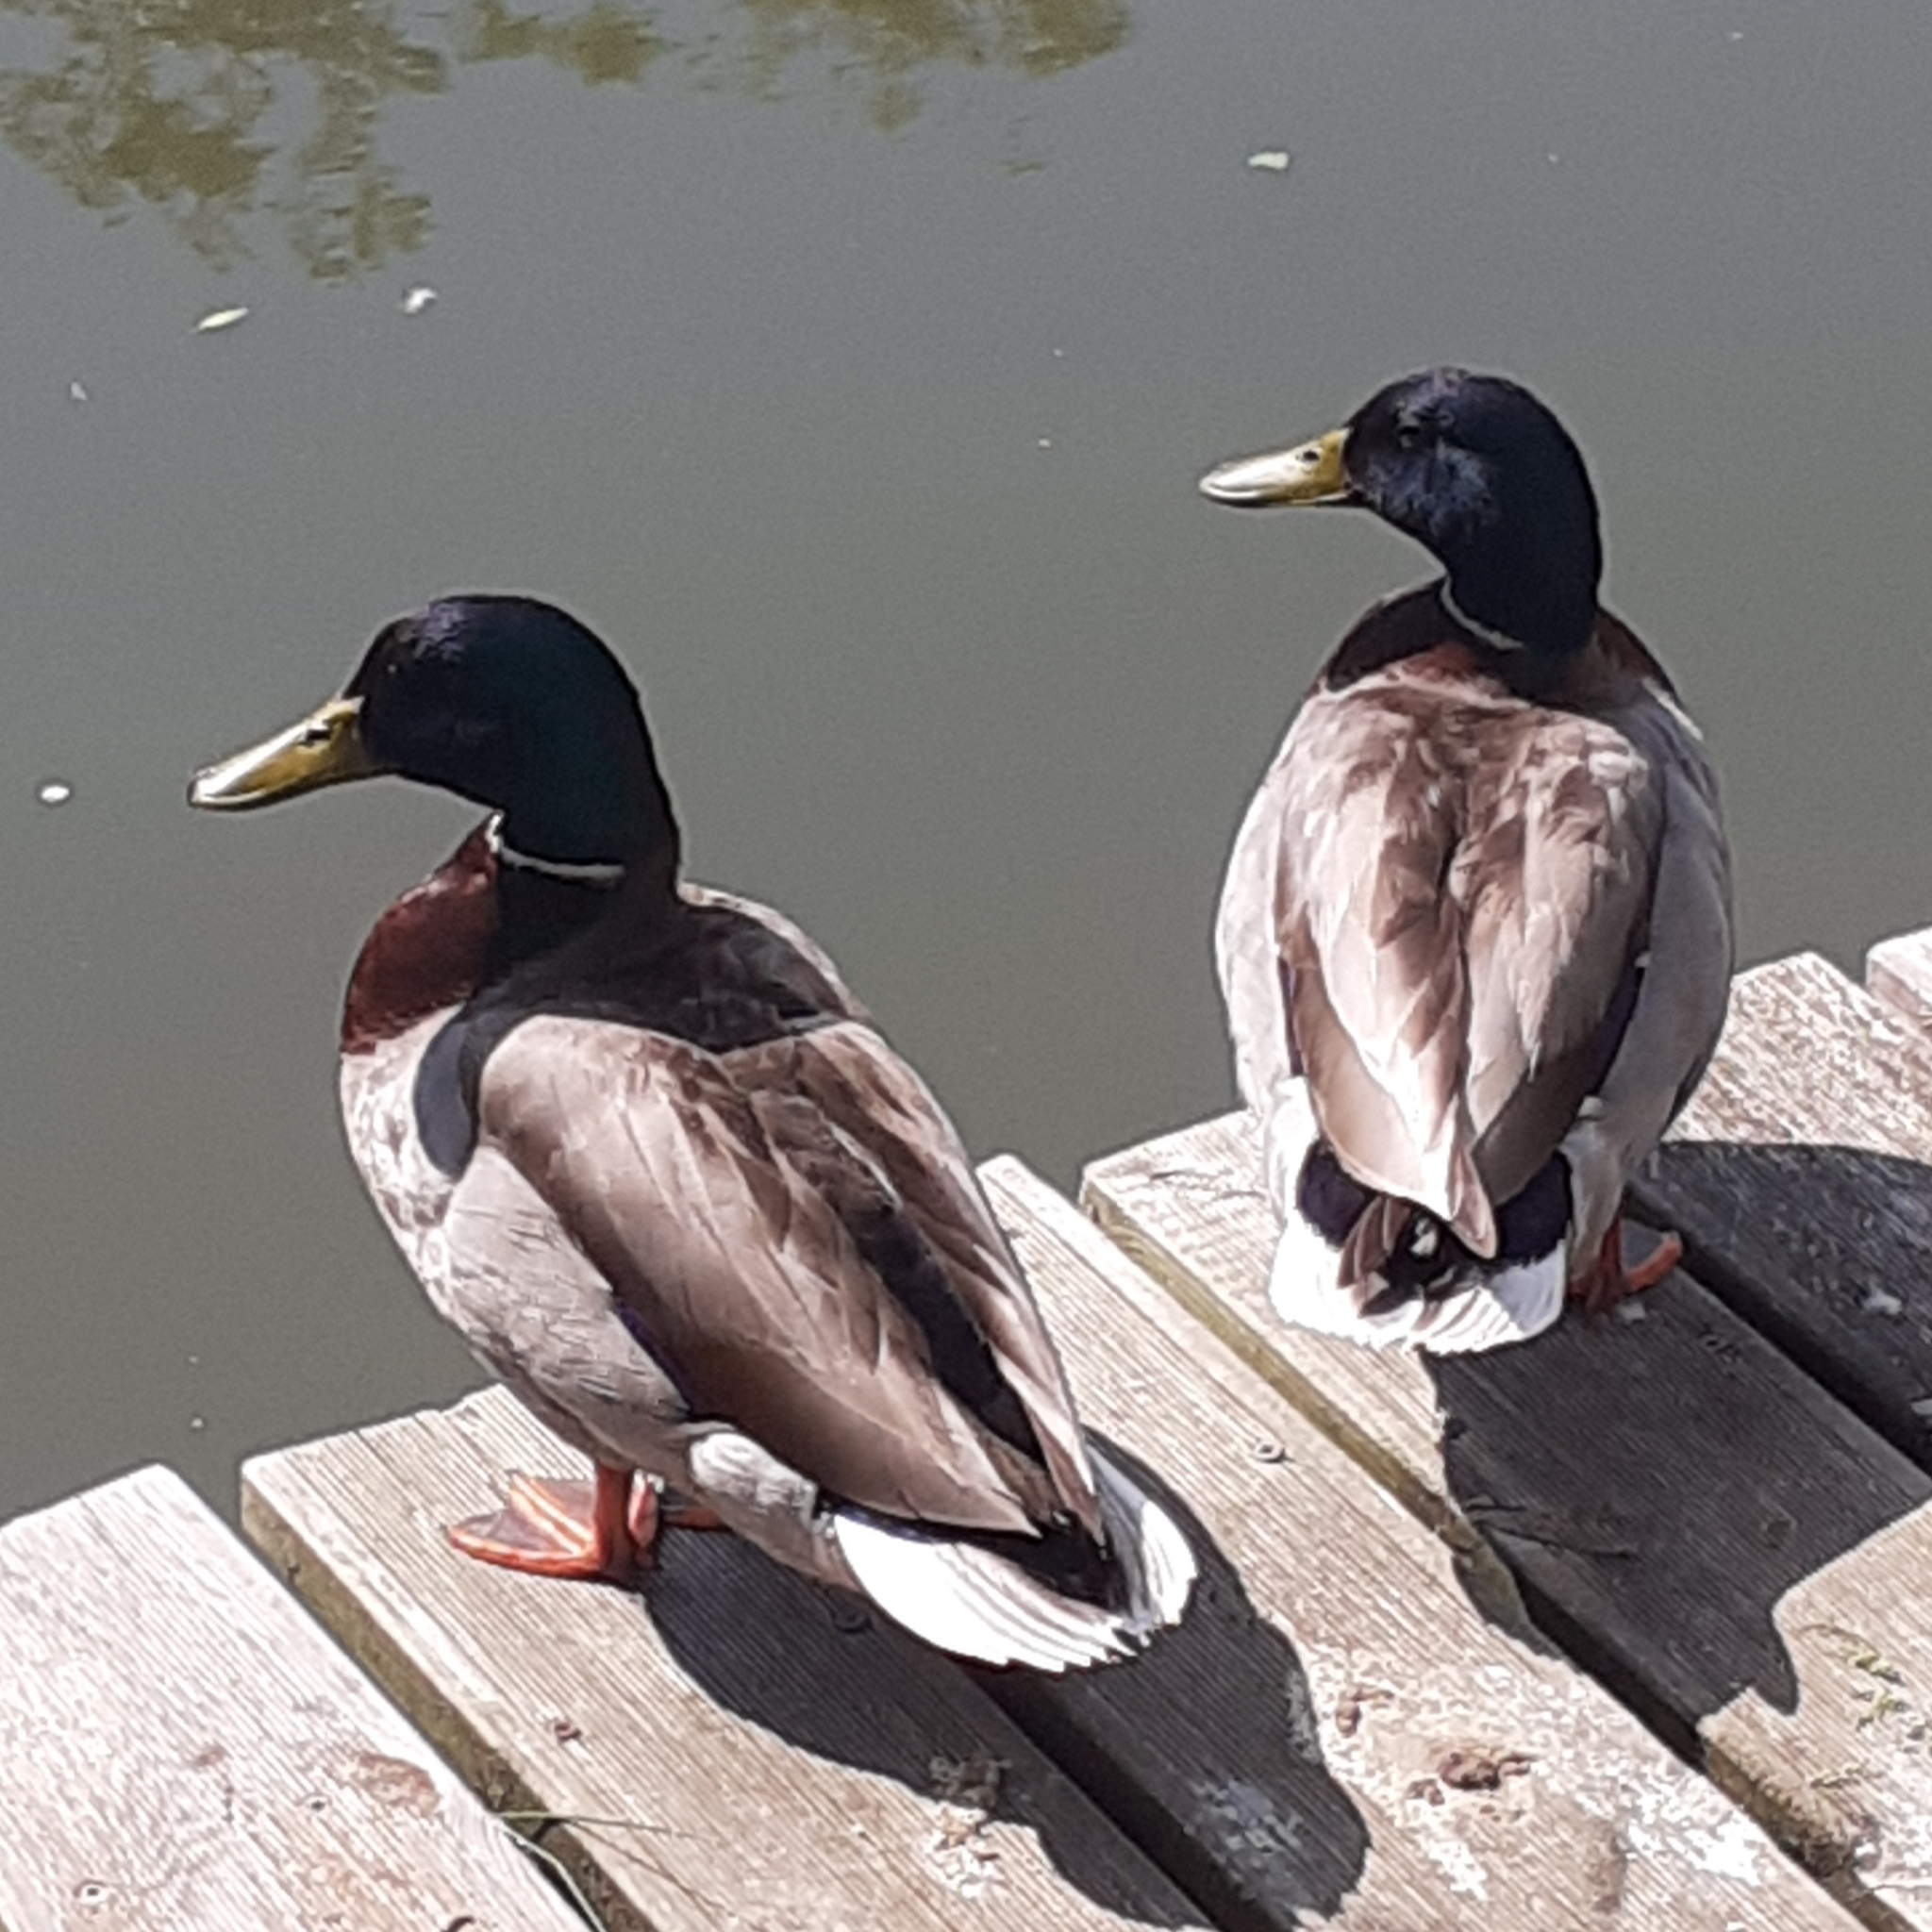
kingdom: Animalia
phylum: Chordata
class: Aves
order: Anseriformes
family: Anatidae
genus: Anas
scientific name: Anas platyrhynchos
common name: Mallard
